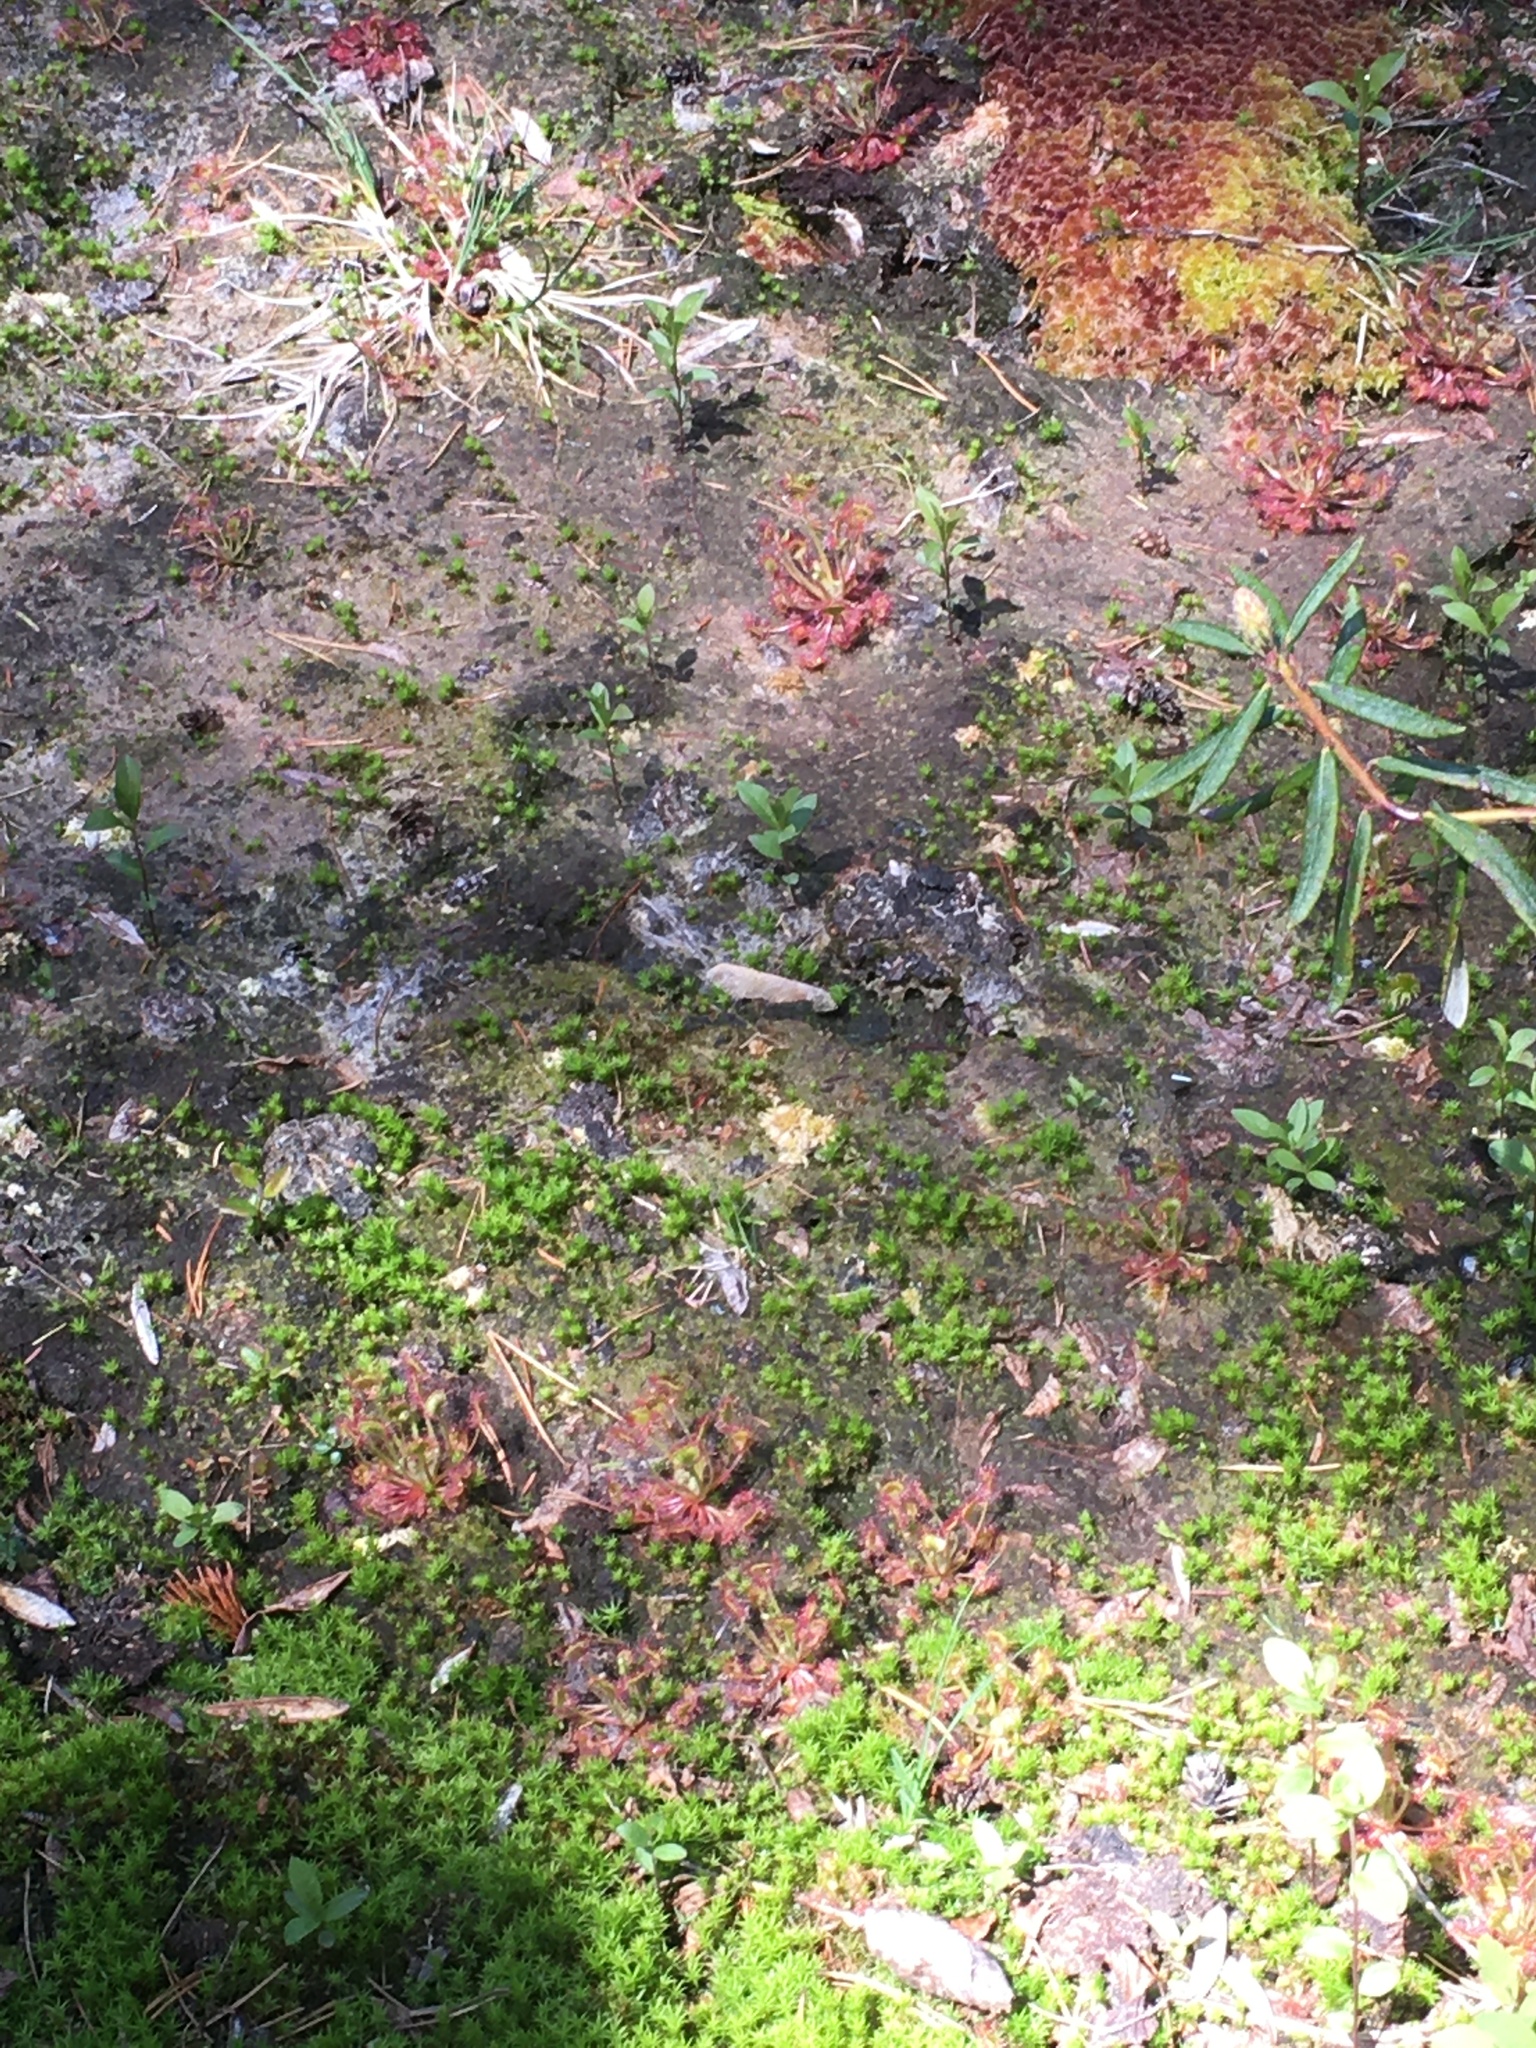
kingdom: Plantae
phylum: Tracheophyta
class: Magnoliopsida
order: Caryophyllales
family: Droseraceae
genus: Drosera
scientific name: Drosera rotundifolia
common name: Round-leaved sundew
